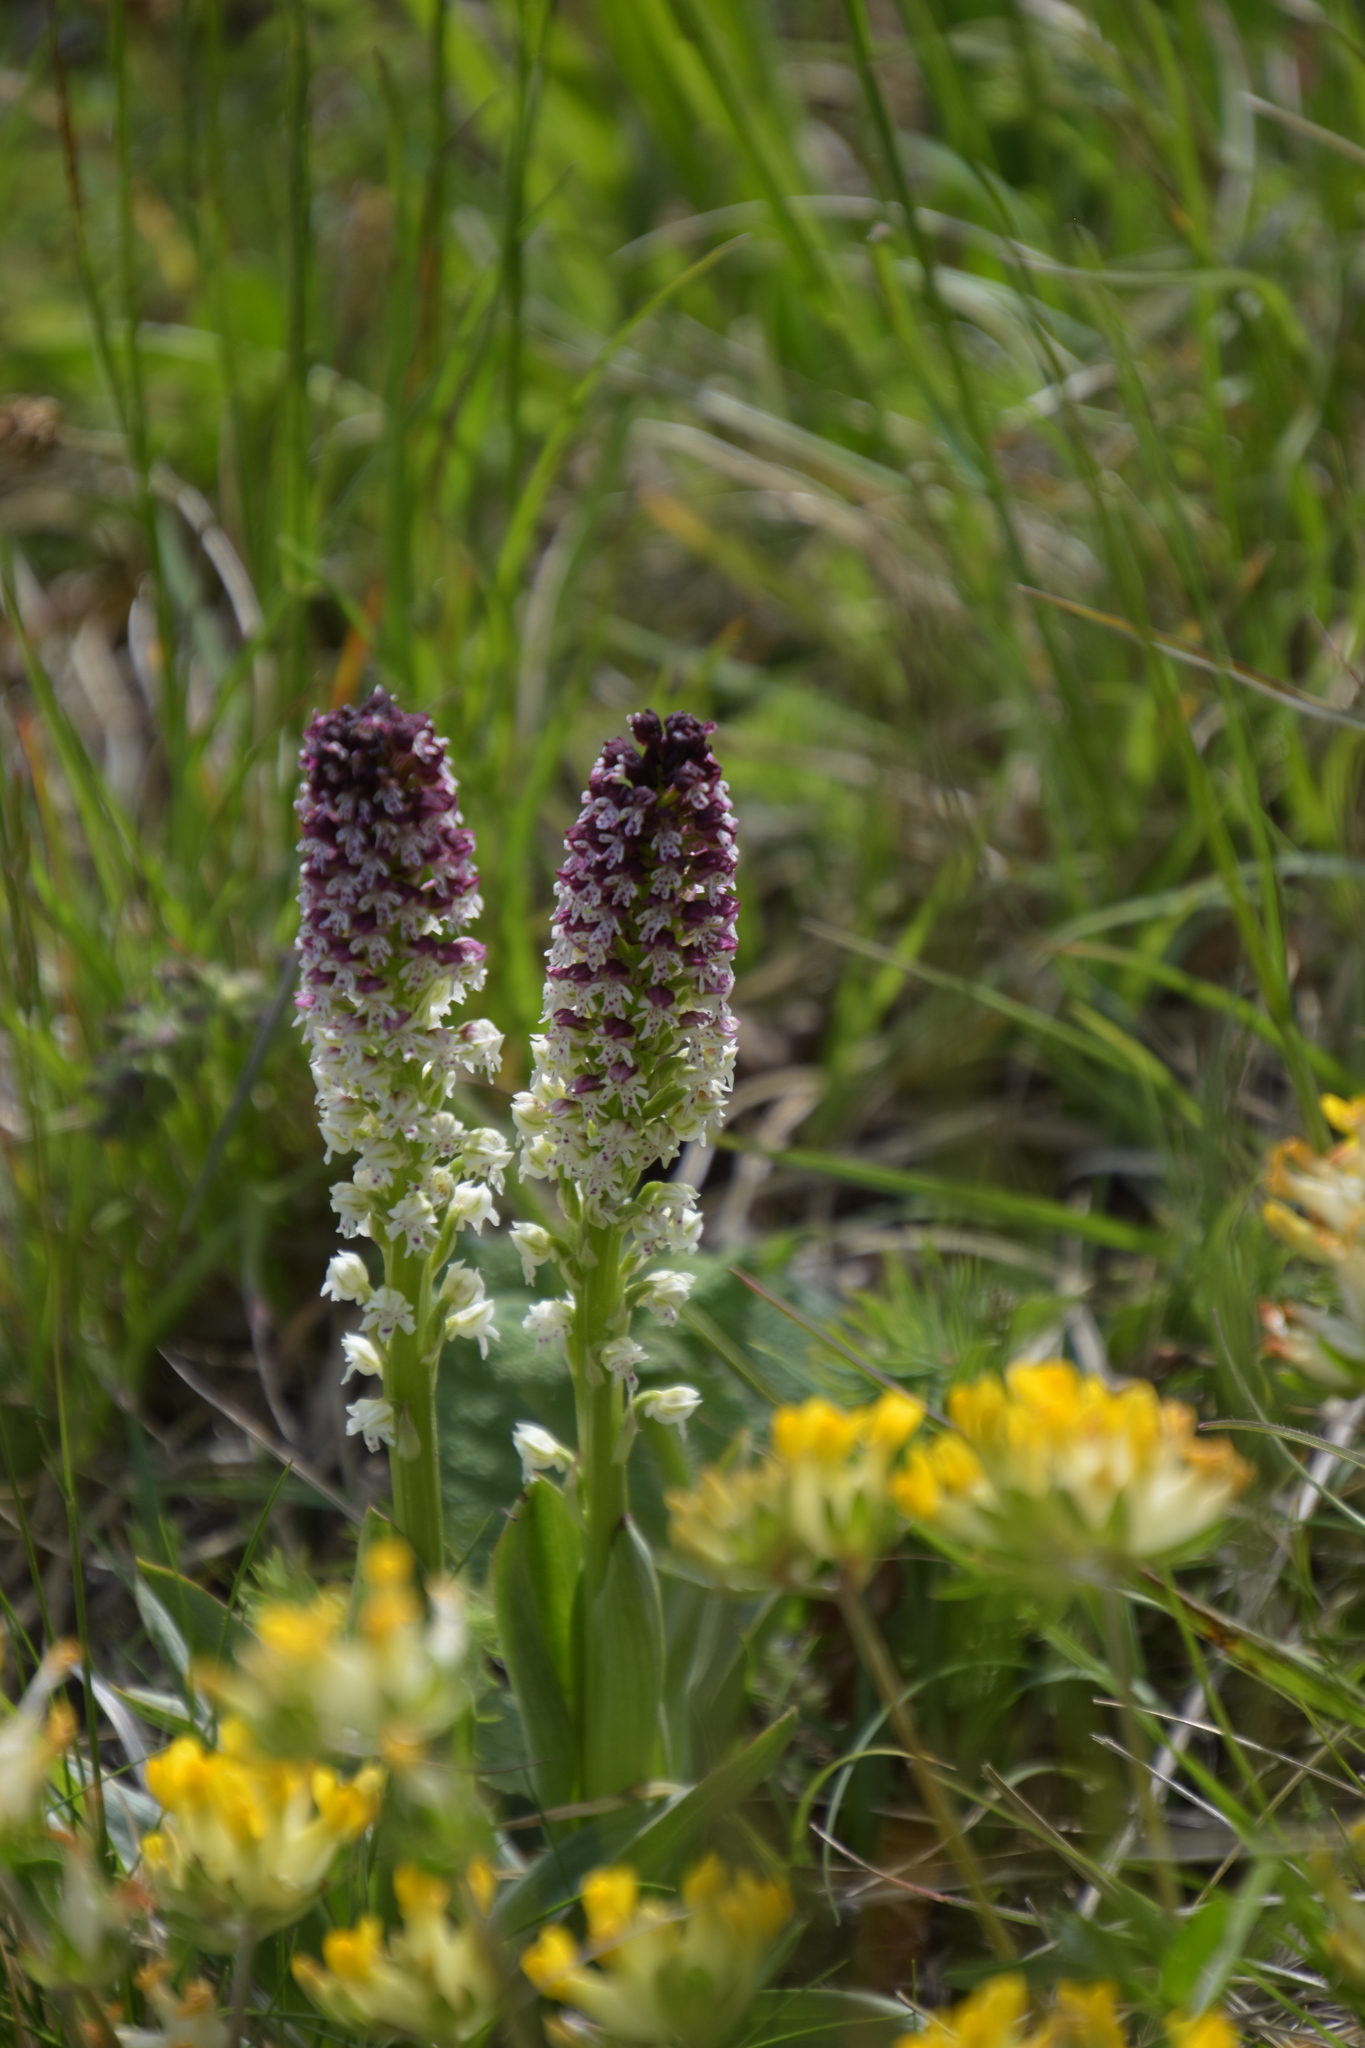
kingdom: Plantae
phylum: Tracheophyta
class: Liliopsida
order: Asparagales
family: Orchidaceae
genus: Neotinea
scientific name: Neotinea ustulata
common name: Burnt orchid
